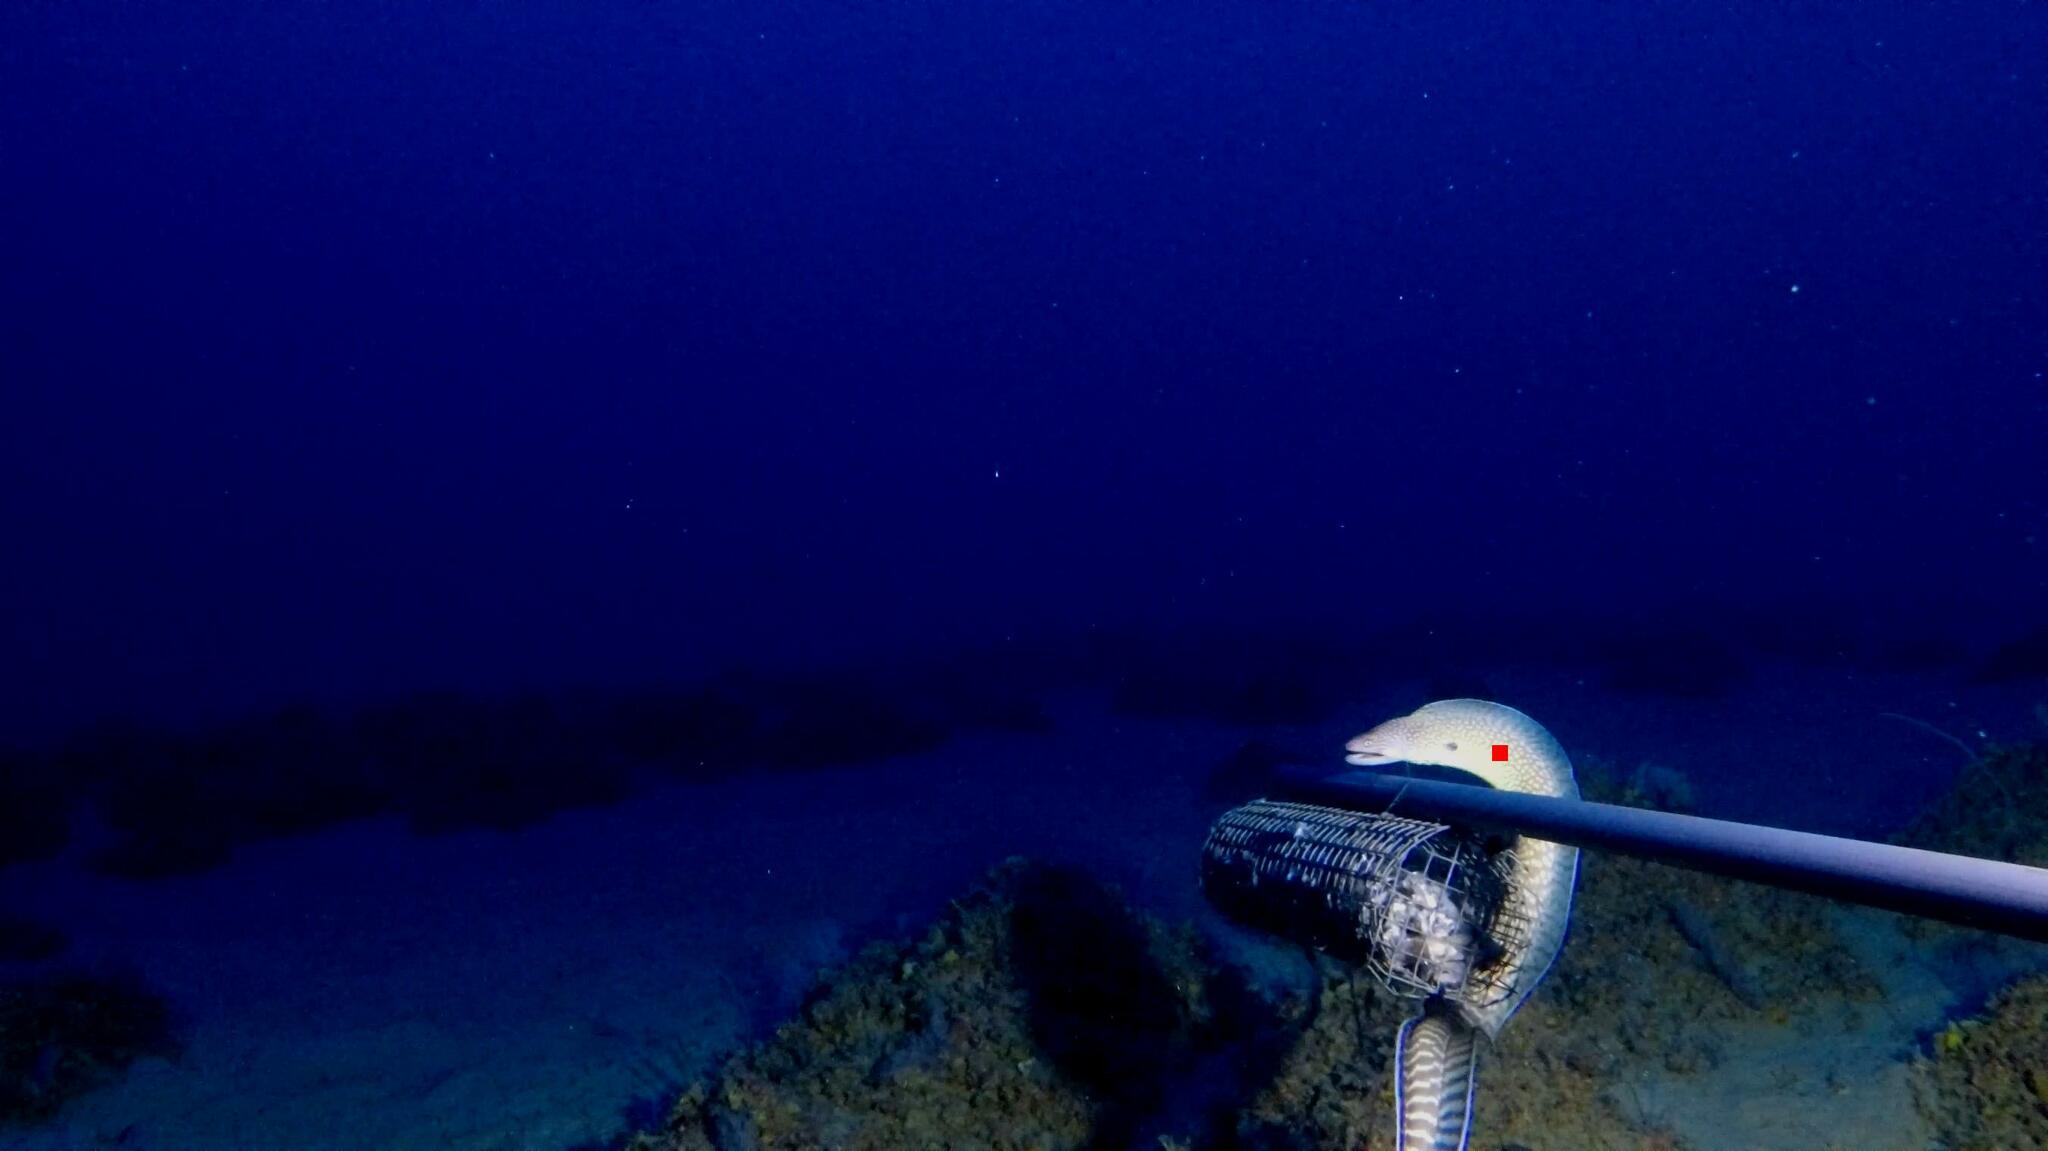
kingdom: Animalia
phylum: Chordata
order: Anguilliformes
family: Muraenidae
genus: Gymnothorax
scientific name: Gymnothorax elegans
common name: Elegant moray
